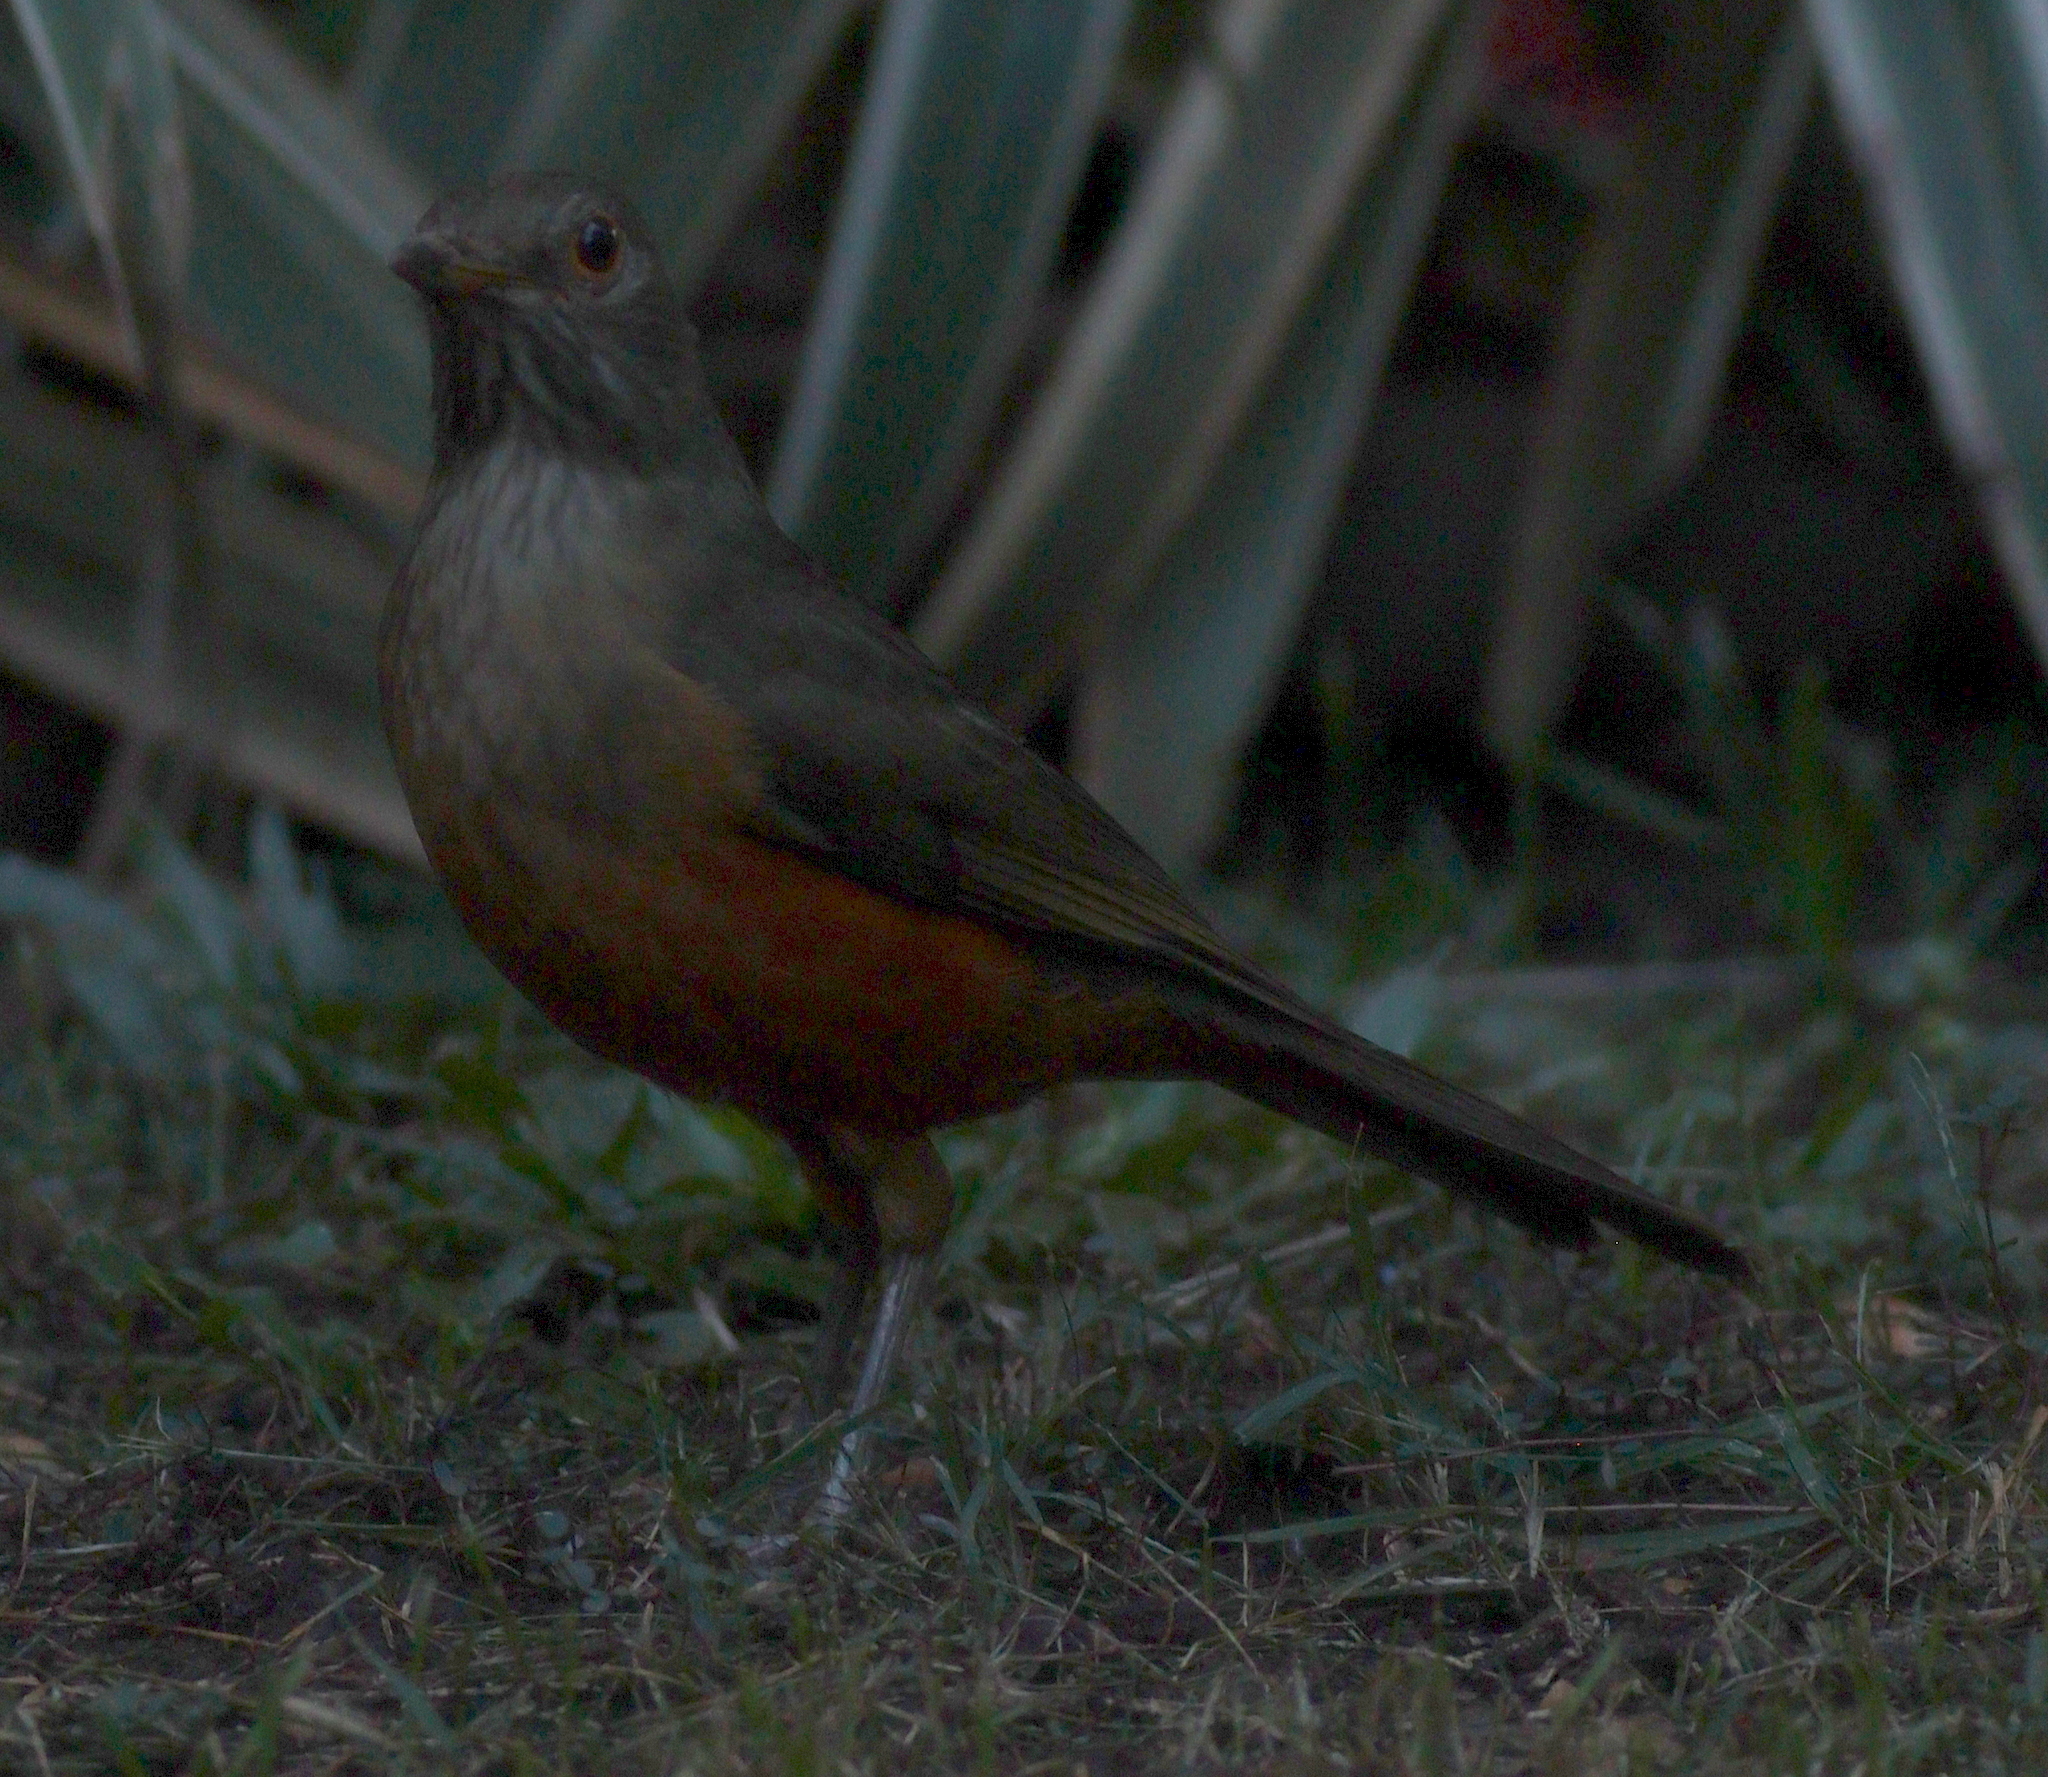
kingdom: Animalia
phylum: Chordata
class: Aves
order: Passeriformes
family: Turdidae
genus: Turdus
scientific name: Turdus rufiventris
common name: Rufous-bellied thrush
